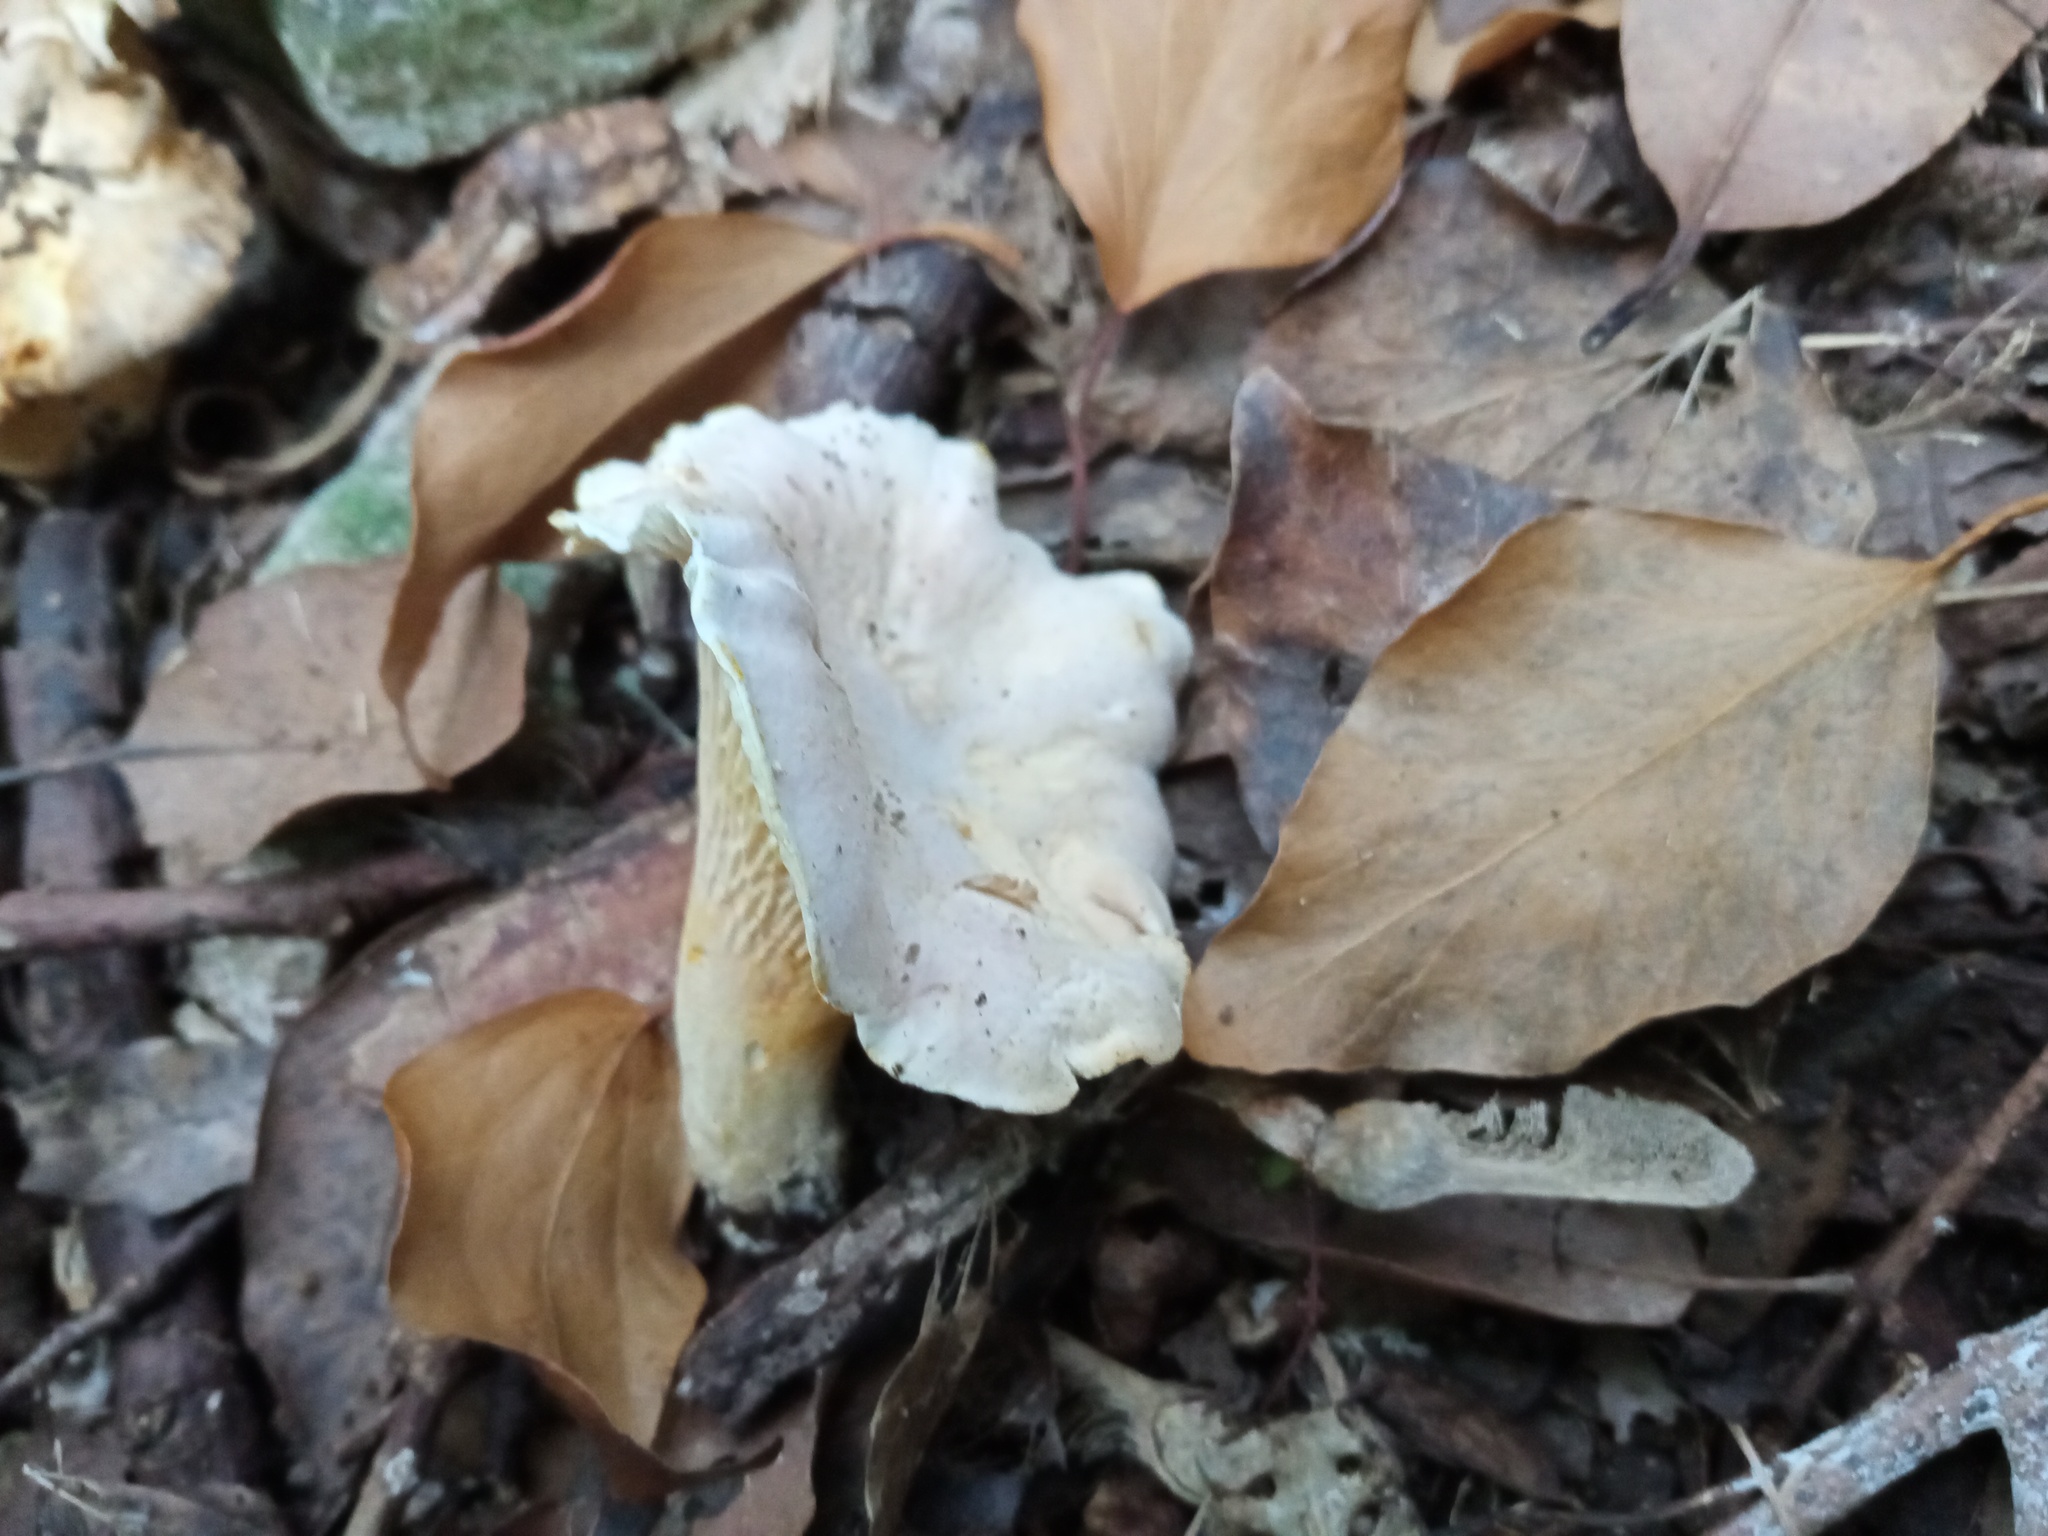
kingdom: Fungi
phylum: Basidiomycota
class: Agaricomycetes
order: Cantharellales
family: Hydnaceae
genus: Cantharellus
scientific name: Cantharellus pallens
